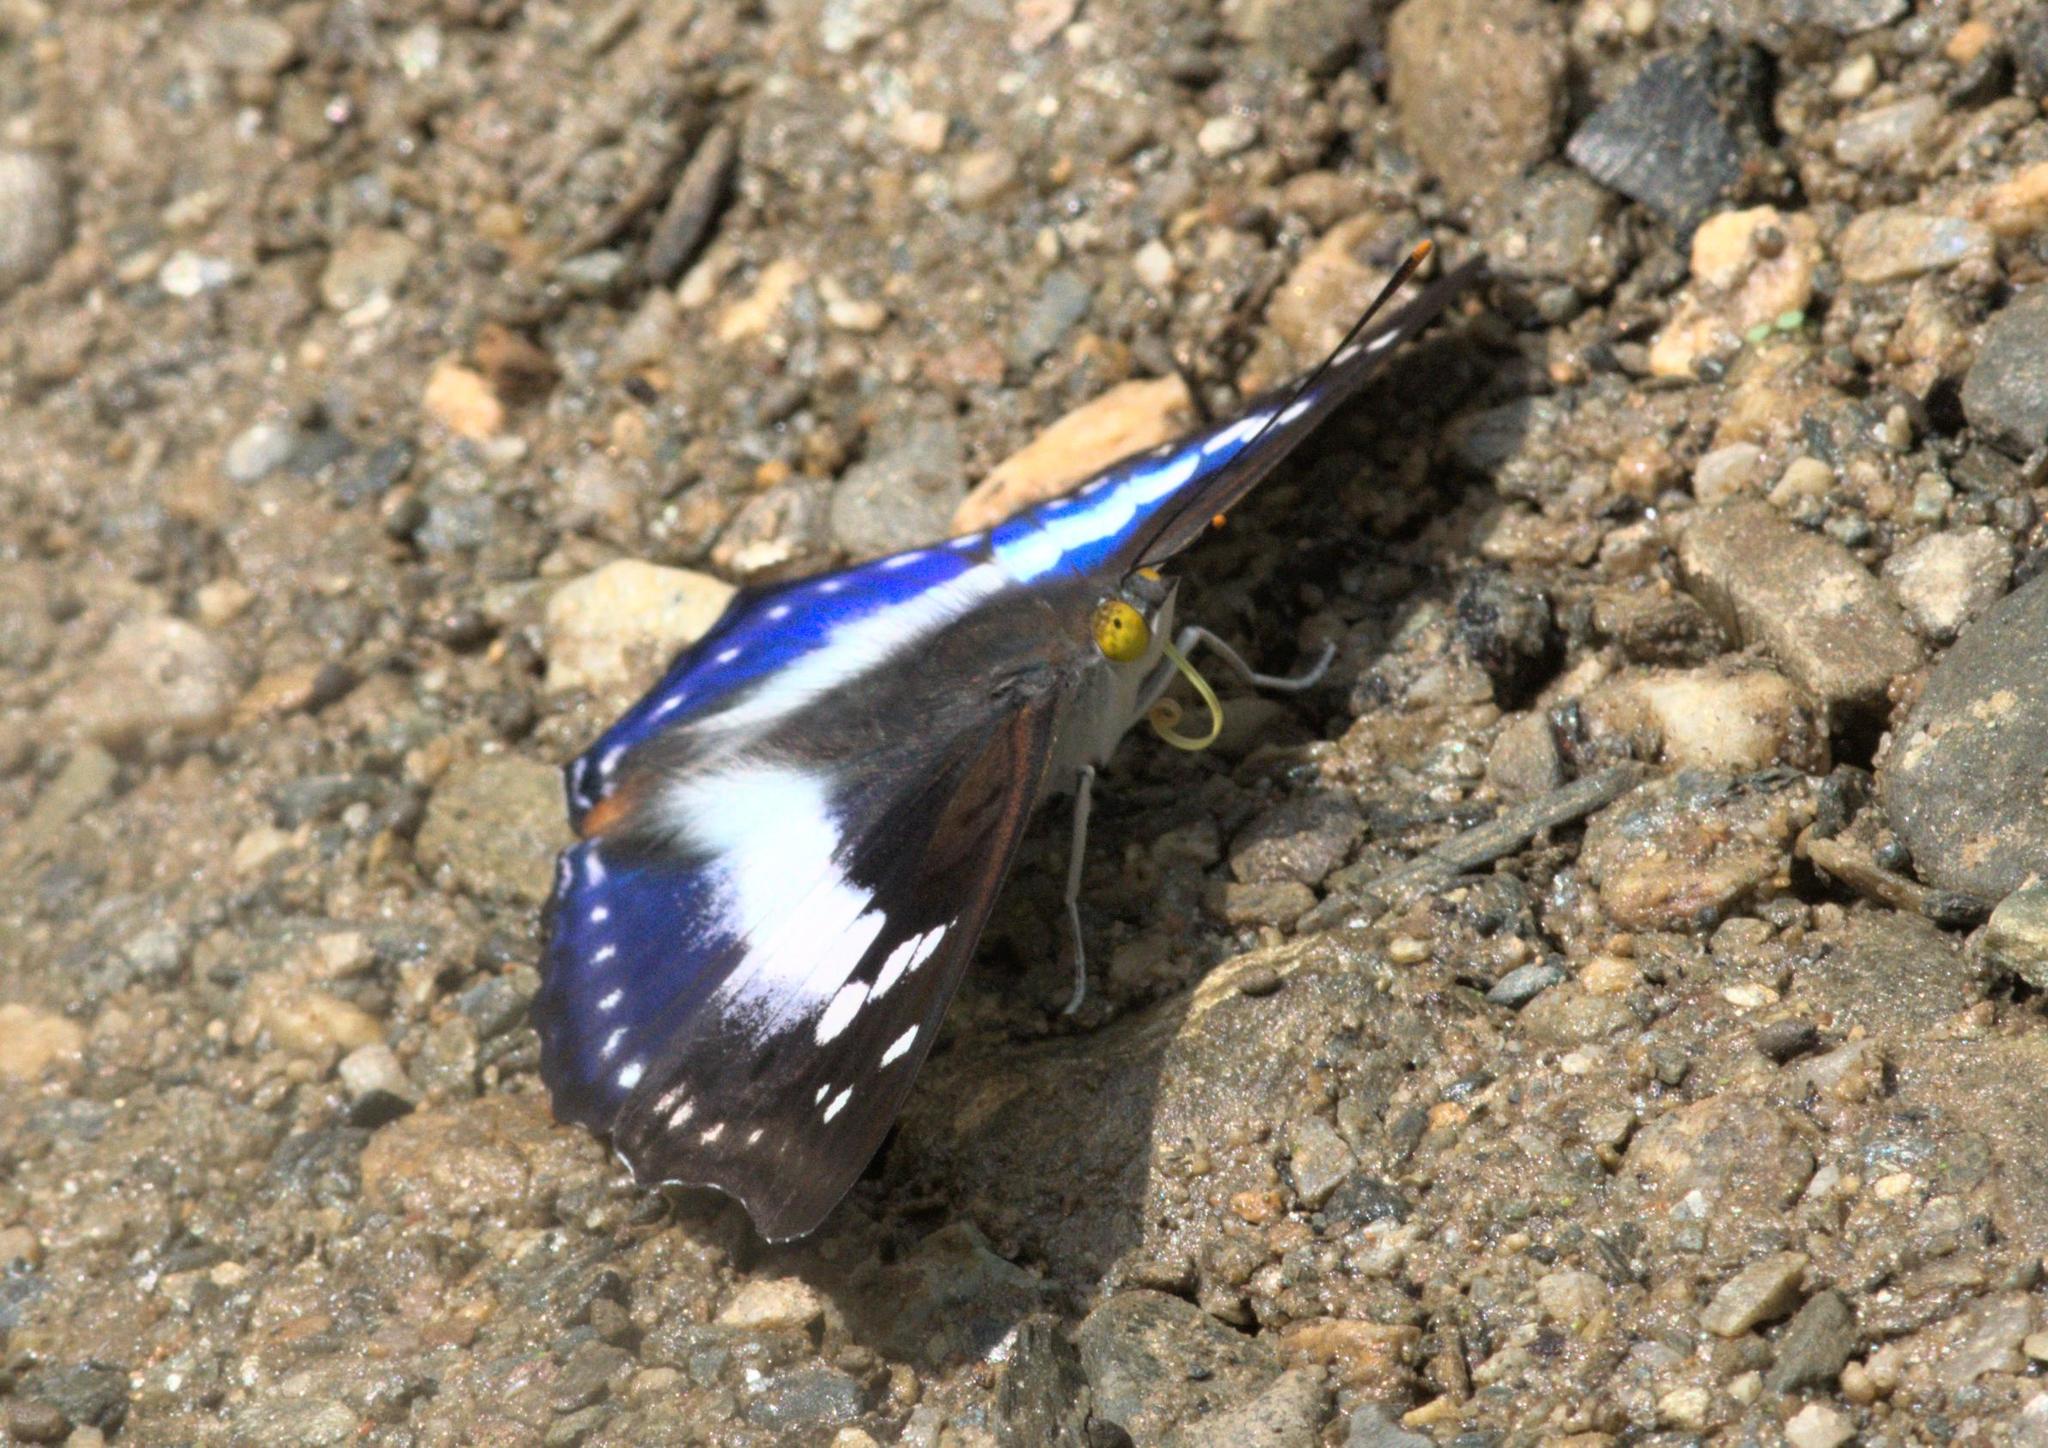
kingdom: Animalia
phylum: Arthropoda
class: Insecta
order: Lepidoptera
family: Nymphalidae
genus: Apatura
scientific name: Apatura Mimathyma ambica
